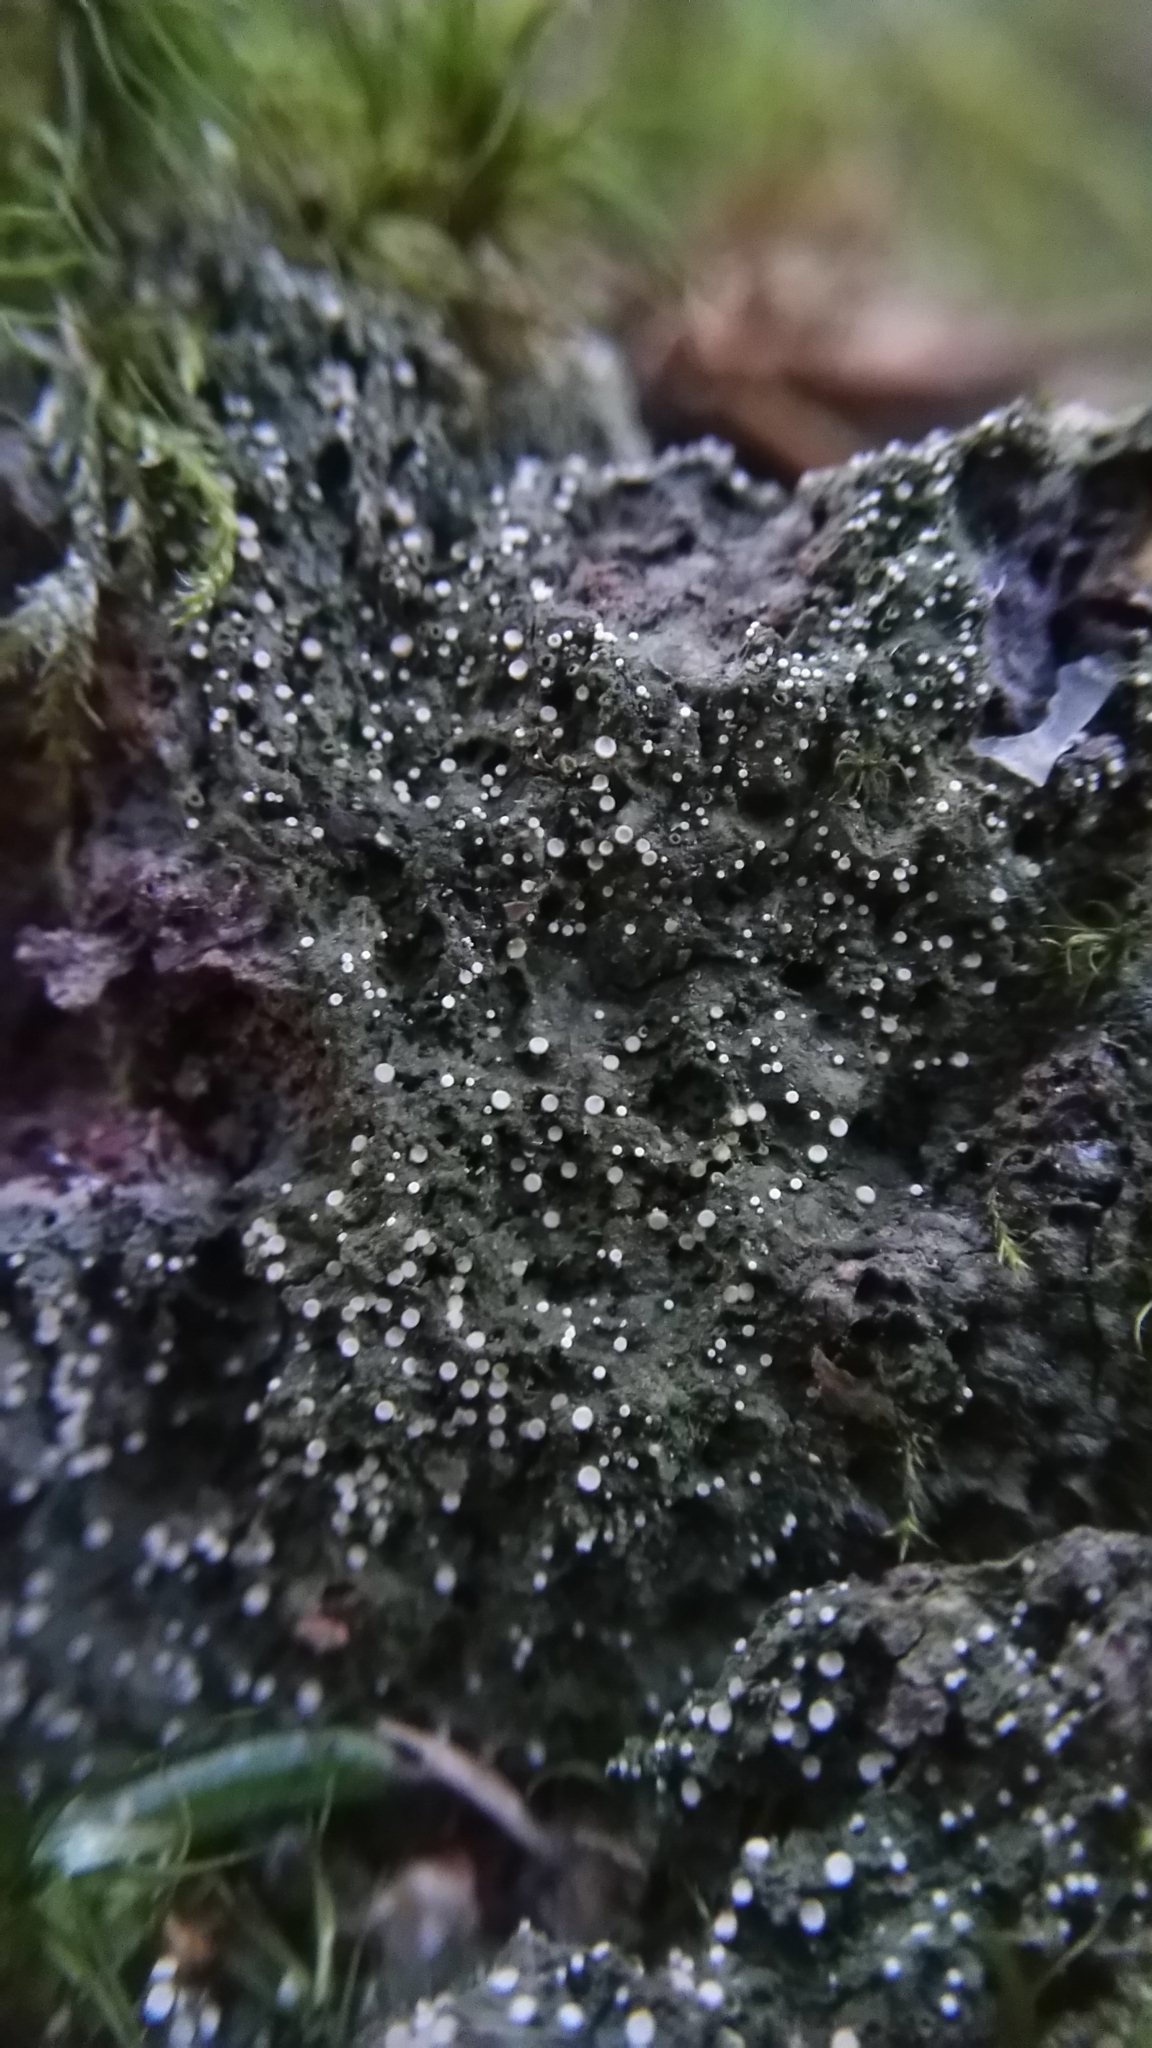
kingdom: Fungi
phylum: Ascomycota
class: Lecanoromycetes
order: Ostropales
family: Coenogoniaceae
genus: Coenogonium
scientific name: Coenogonium pineti
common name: Pink dimple lichen
